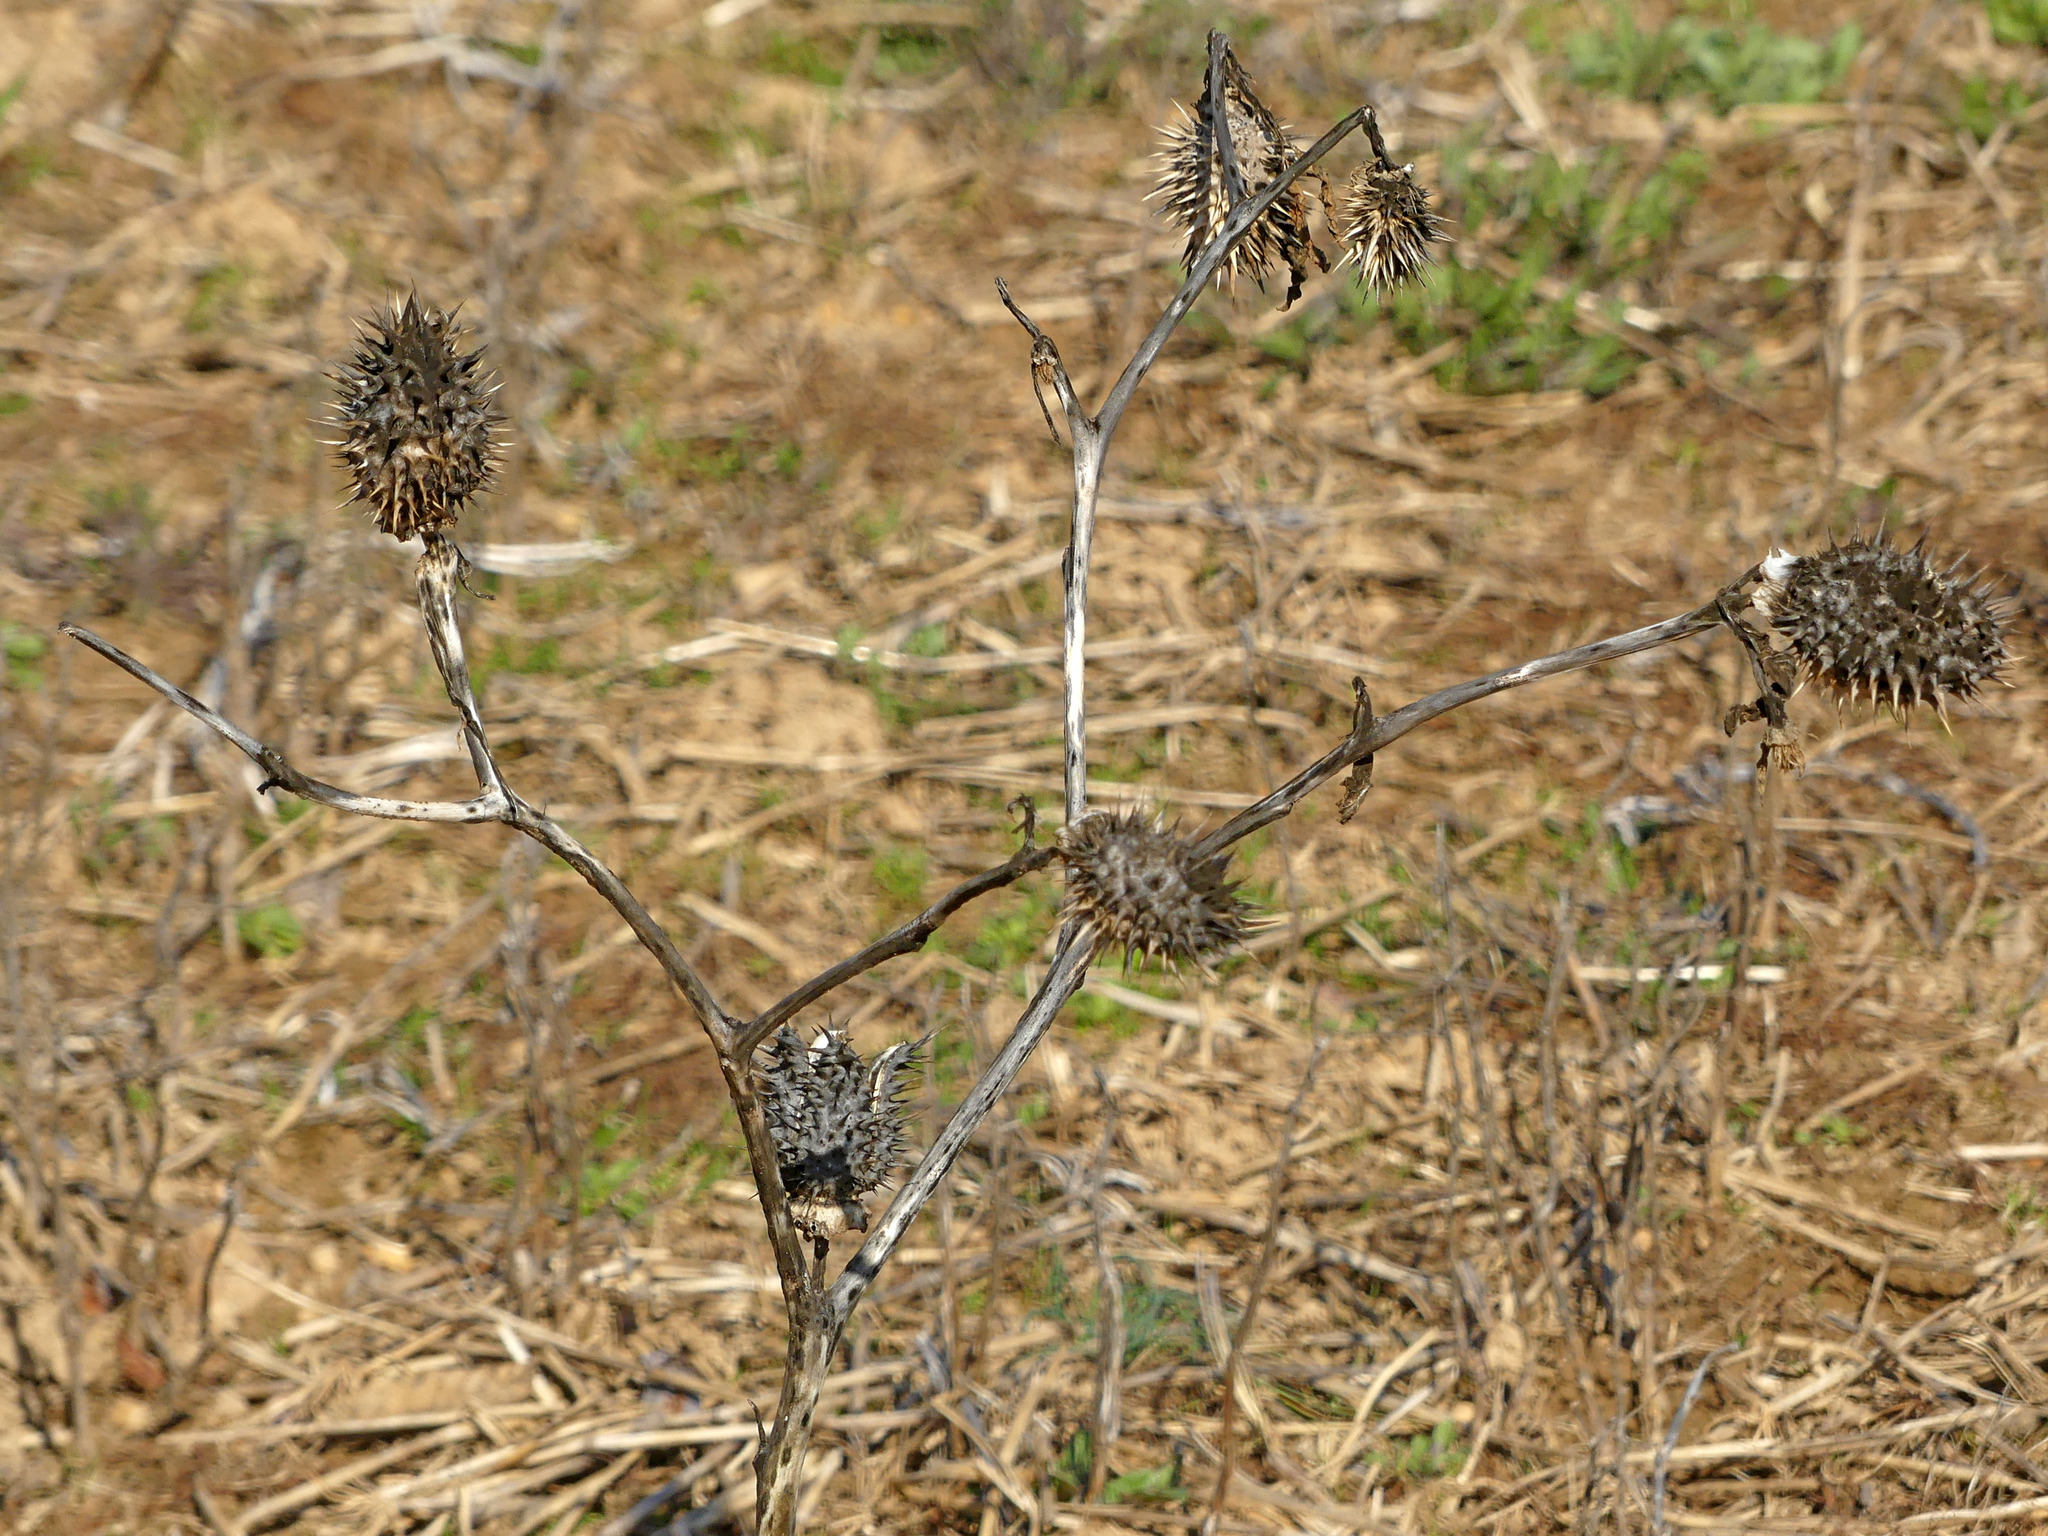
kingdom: Plantae
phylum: Tracheophyta
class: Magnoliopsida
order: Solanales
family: Solanaceae
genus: Datura
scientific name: Datura stramonium
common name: Thorn-apple
